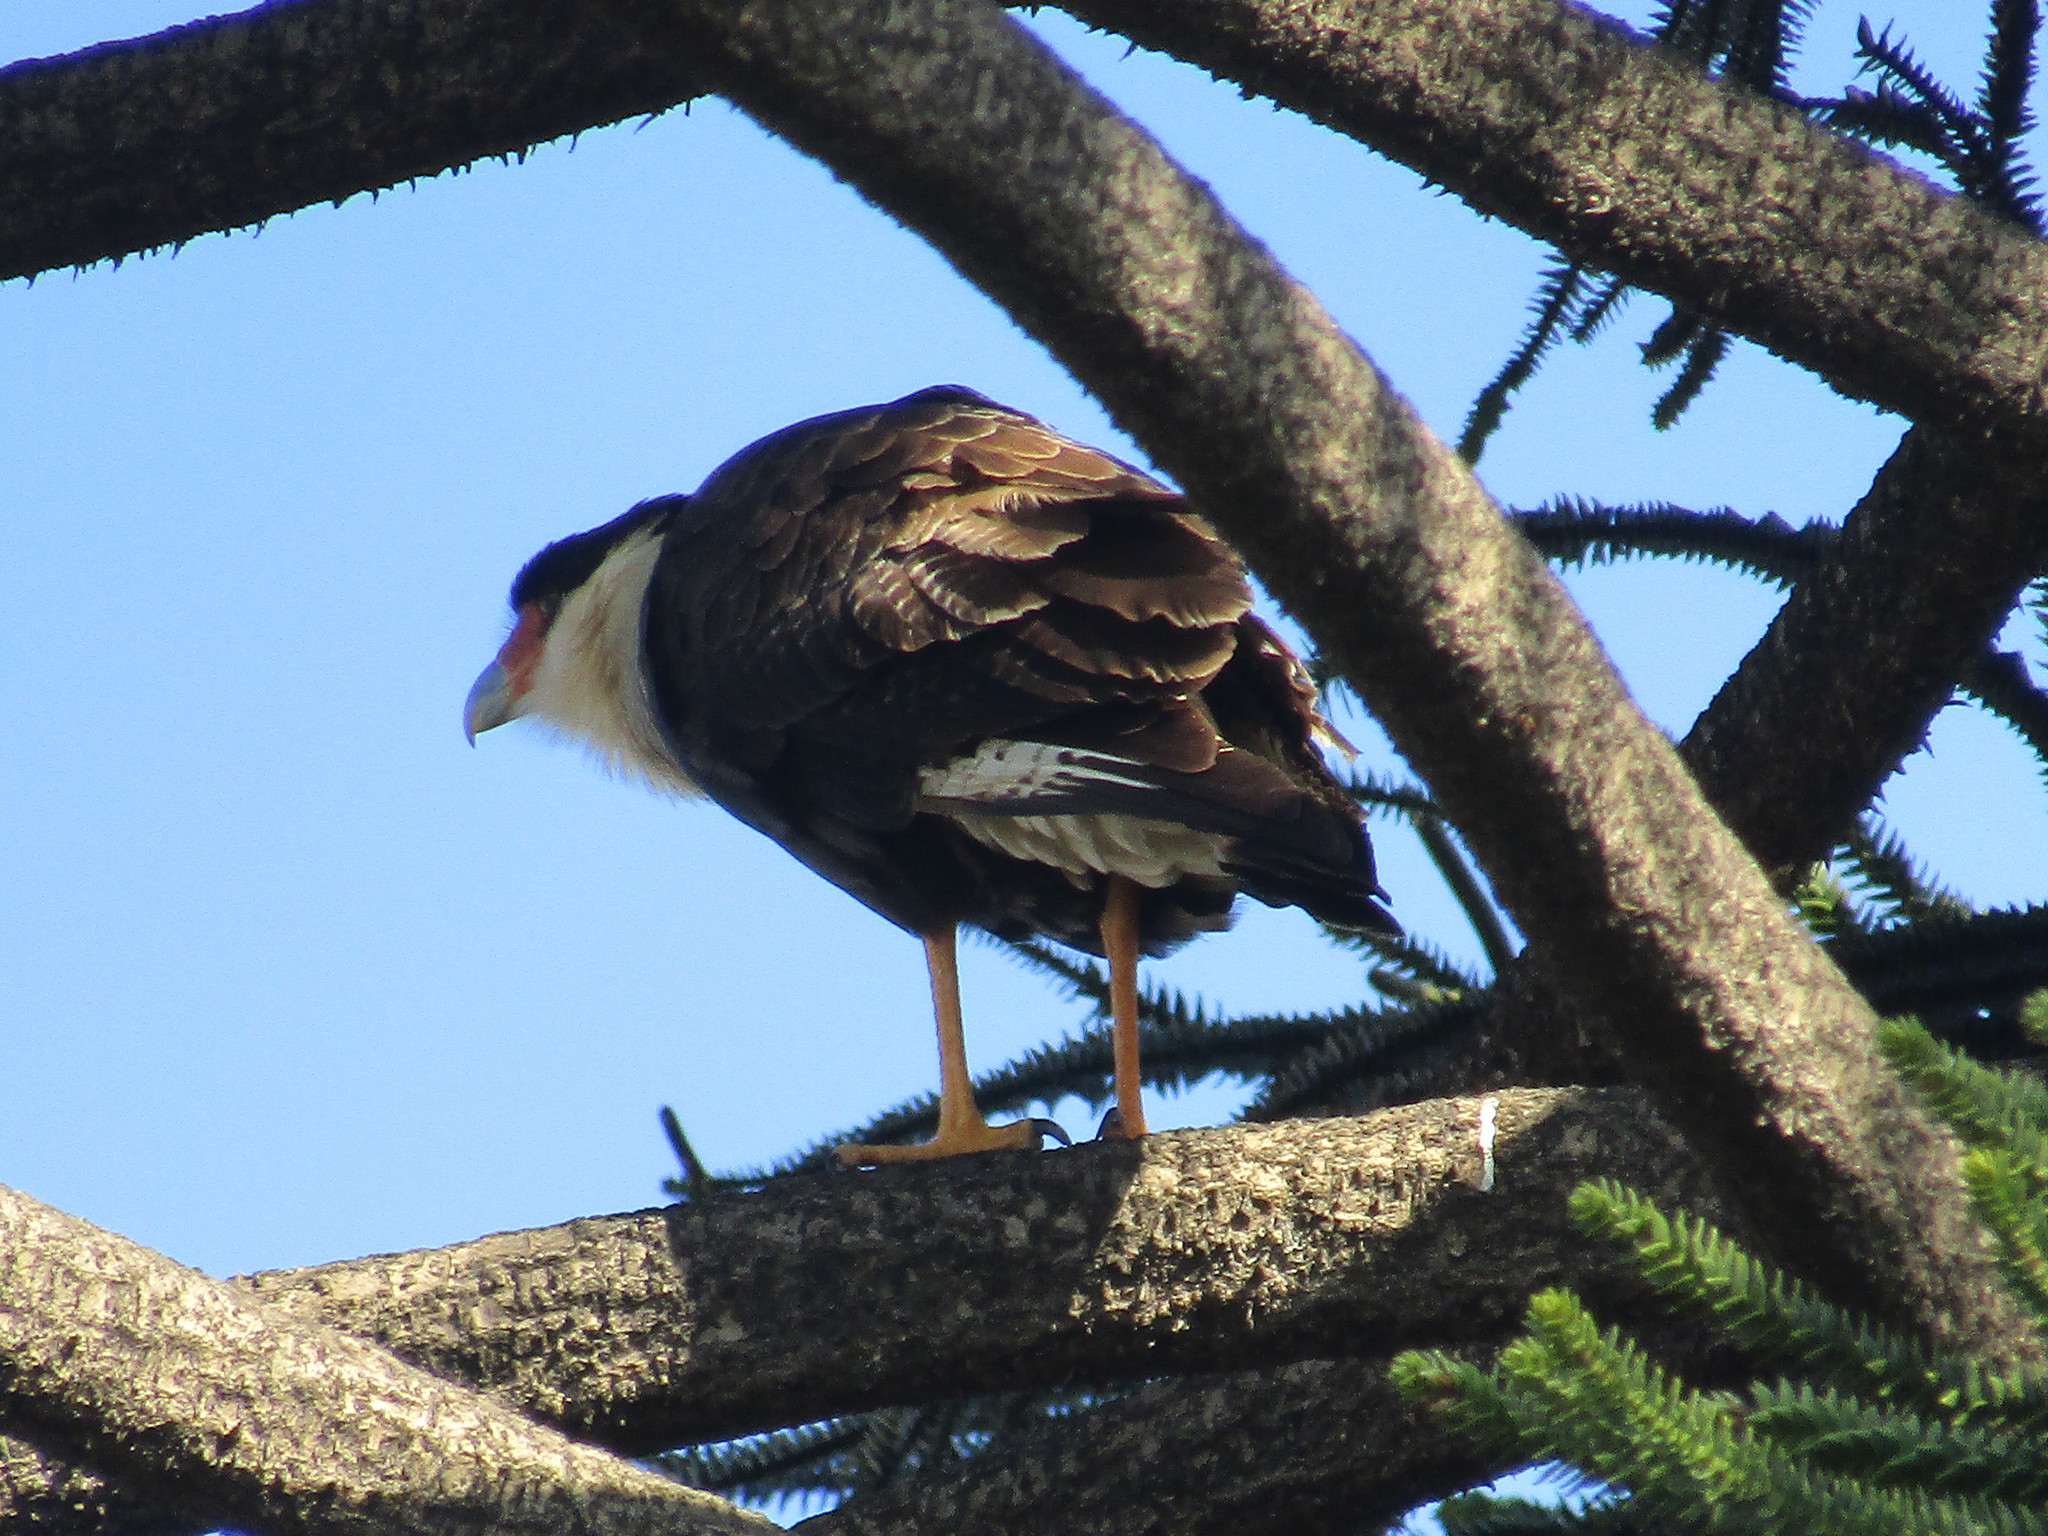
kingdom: Animalia
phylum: Chordata
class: Aves
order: Falconiformes
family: Falconidae
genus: Caracara
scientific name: Caracara plancus
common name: Southern caracara
